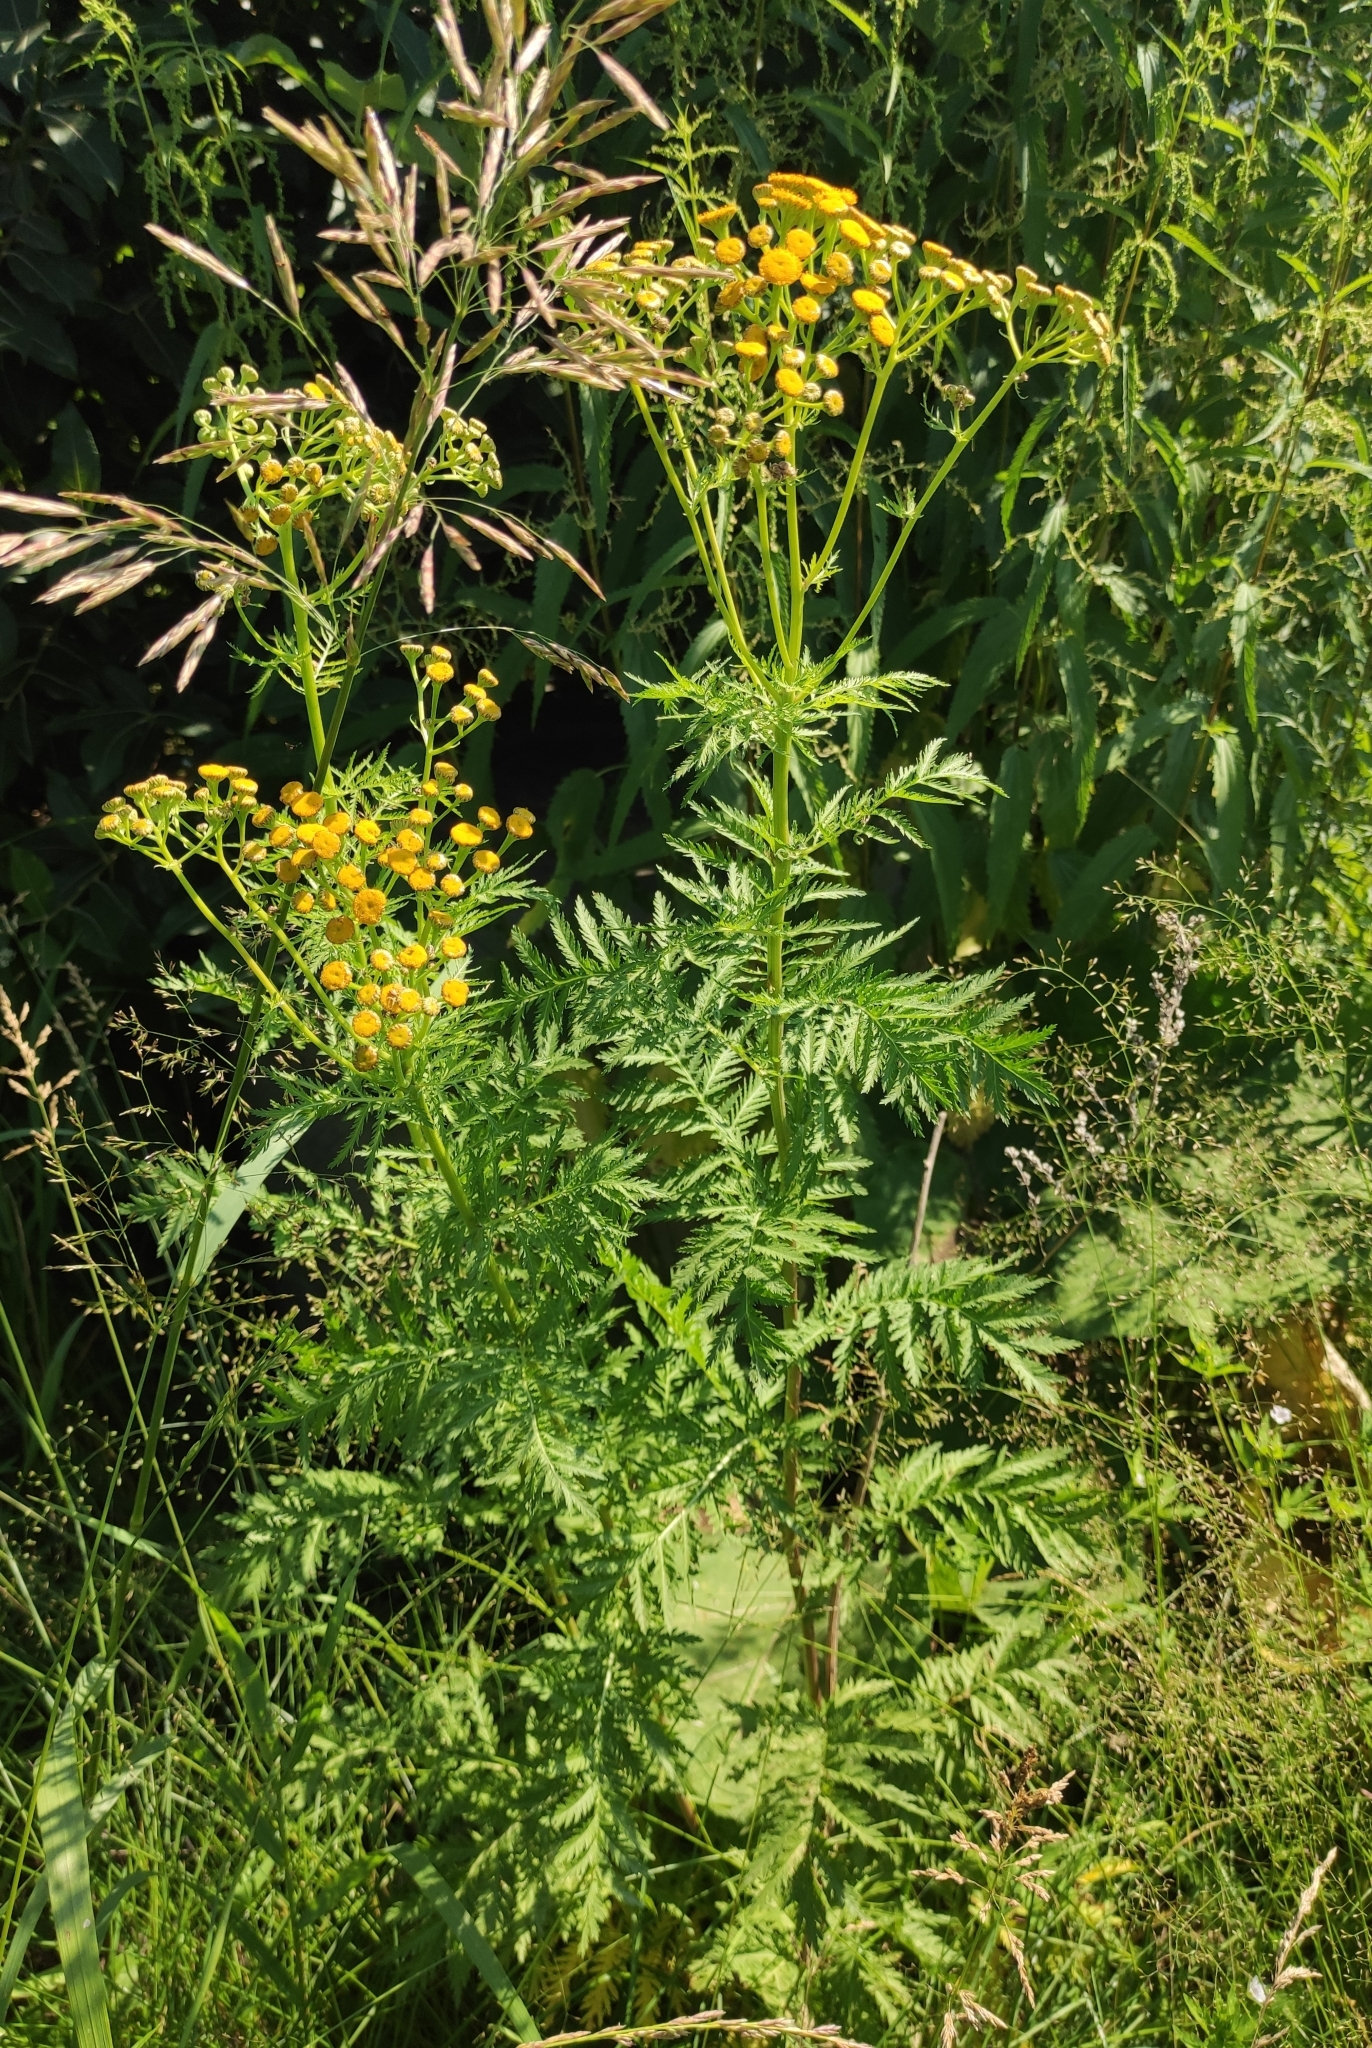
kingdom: Plantae
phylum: Tracheophyta
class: Magnoliopsida
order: Asterales
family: Asteraceae
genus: Tanacetum
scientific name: Tanacetum vulgare
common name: Common tansy
